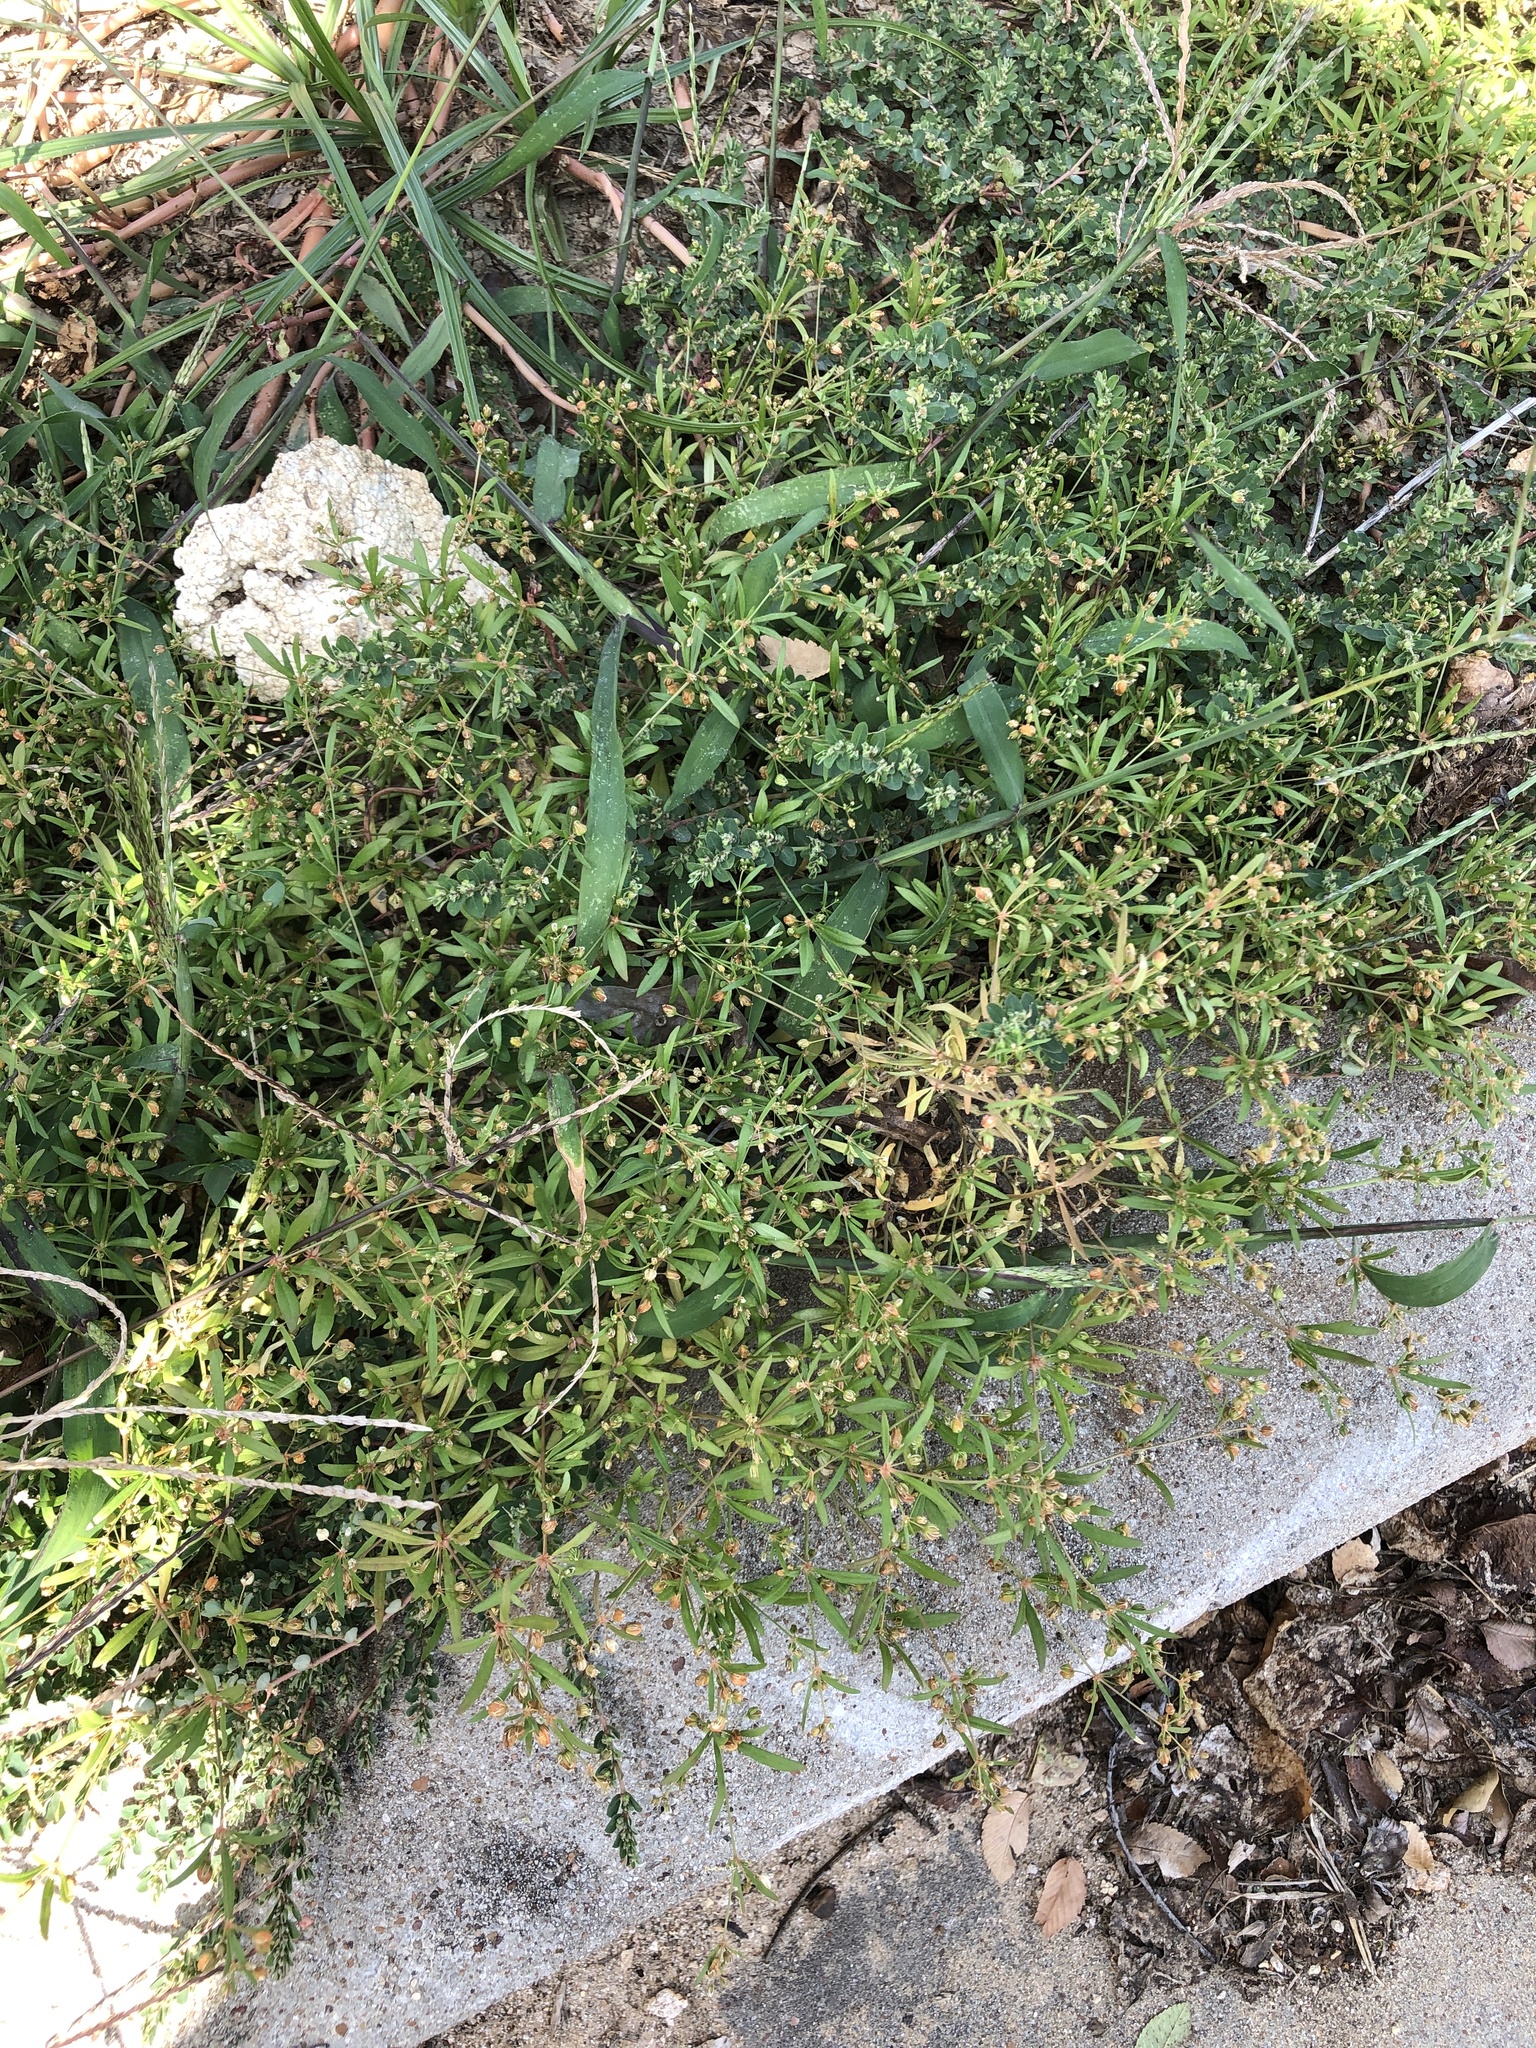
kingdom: Plantae
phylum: Tracheophyta
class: Magnoliopsida
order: Caryophyllales
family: Molluginaceae
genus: Mollugo
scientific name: Mollugo verticillata
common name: Green carpetweed
